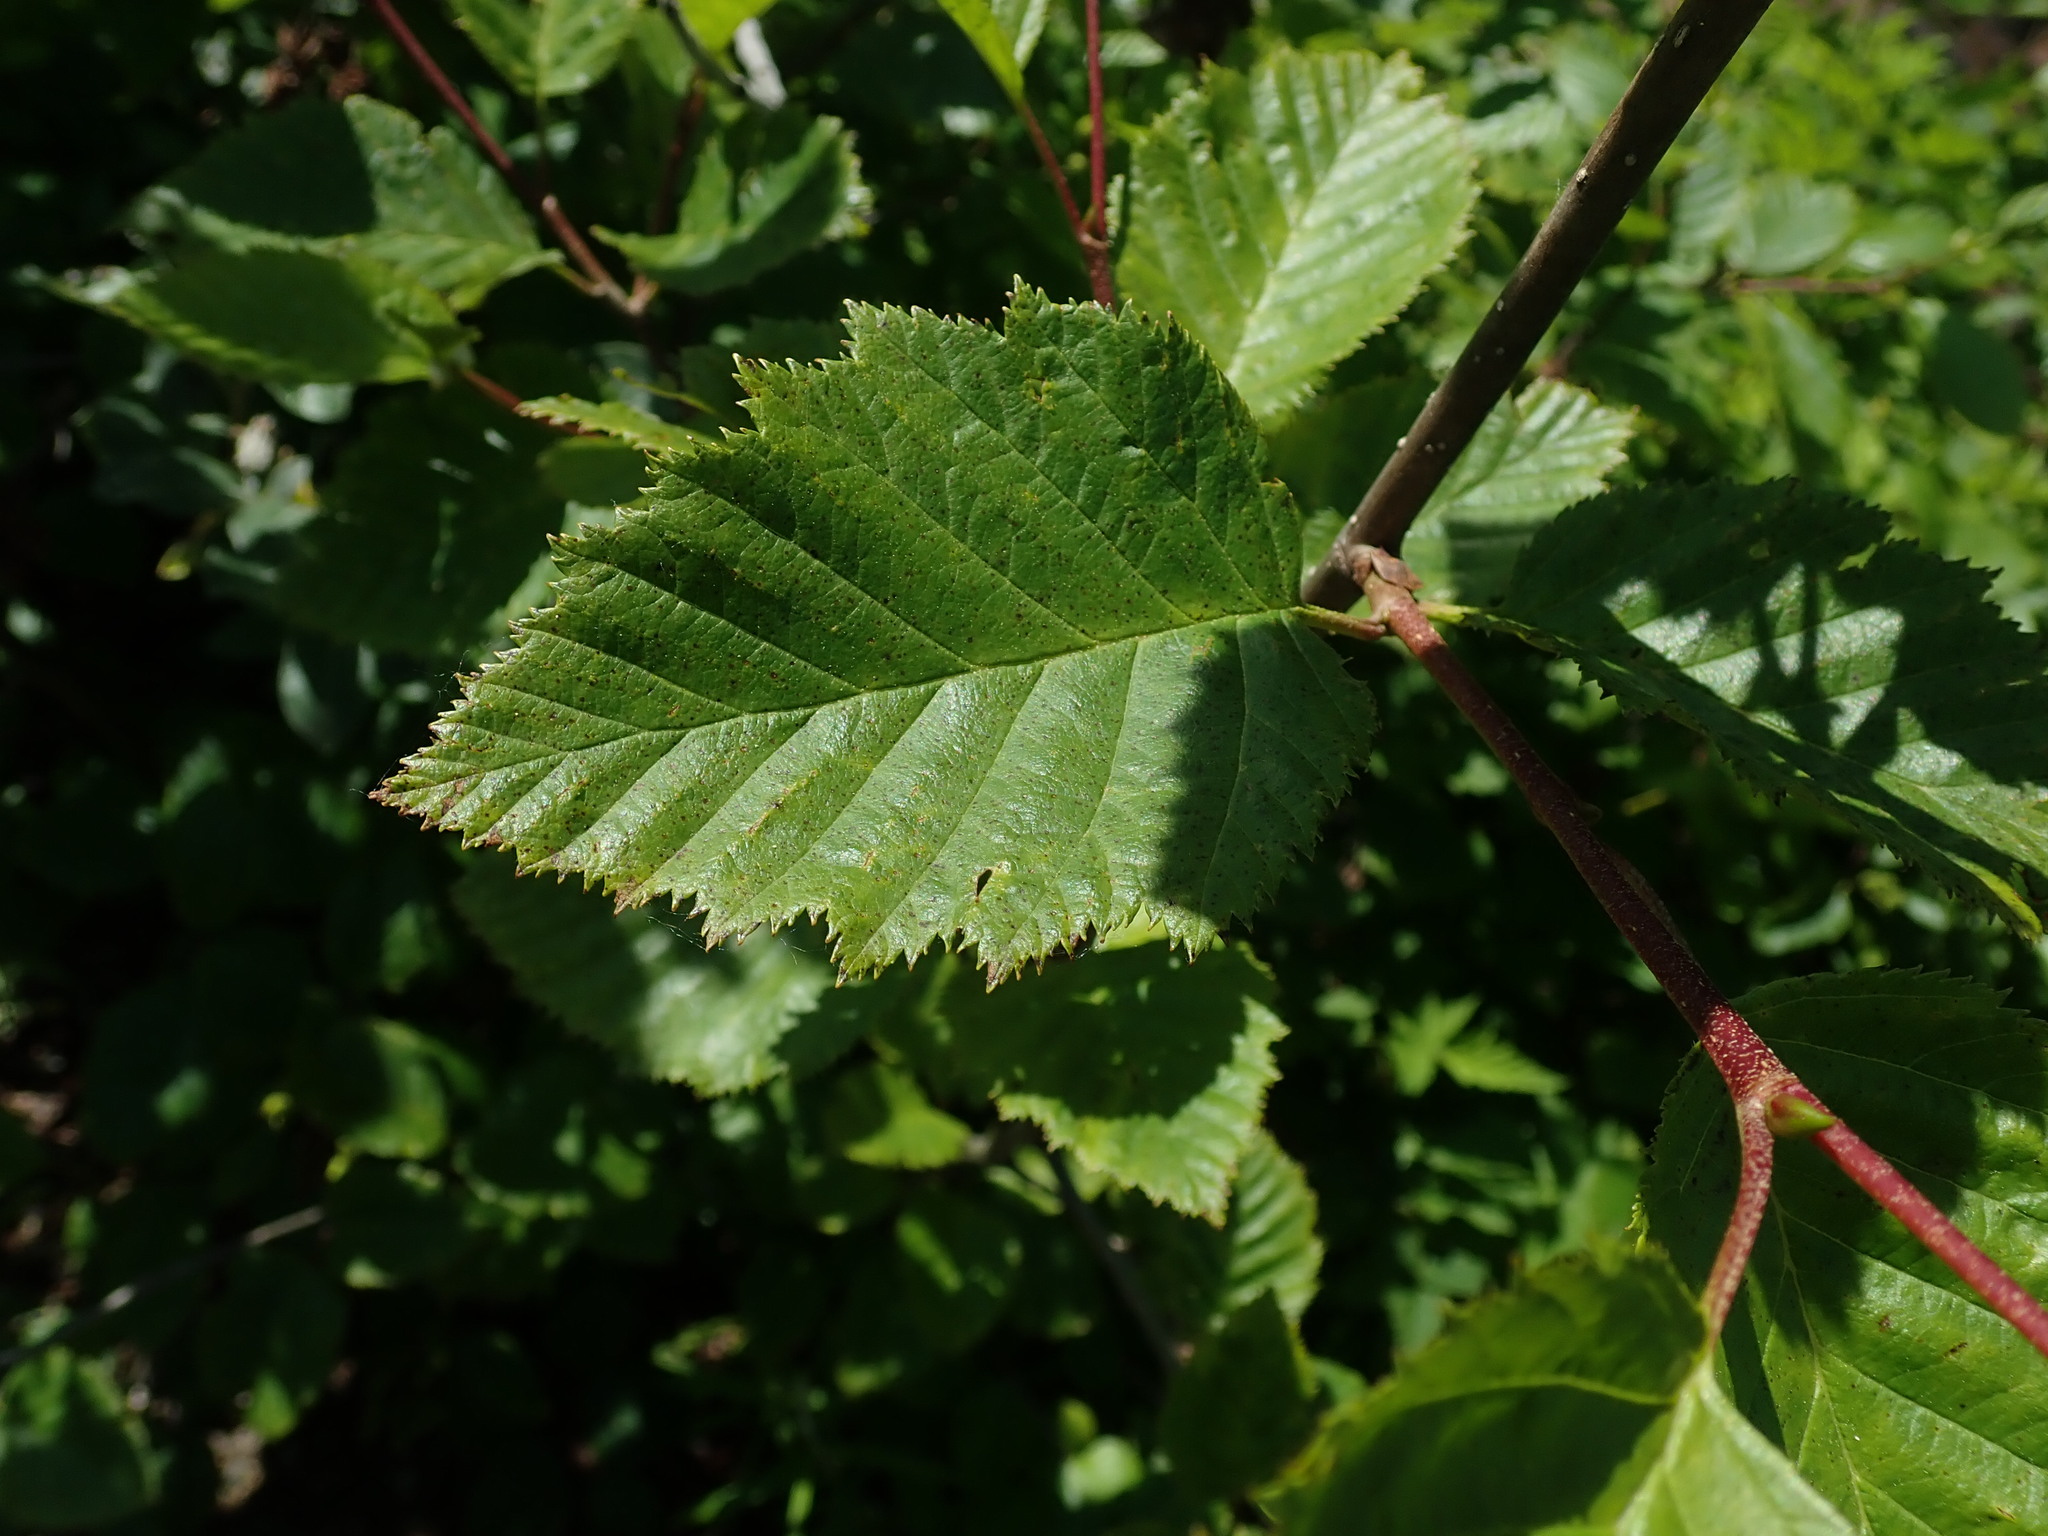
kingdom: Plantae
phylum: Tracheophyta
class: Magnoliopsida
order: Fagales
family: Betulaceae
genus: Alnus
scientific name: Alnus alnobetula
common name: Green alder
